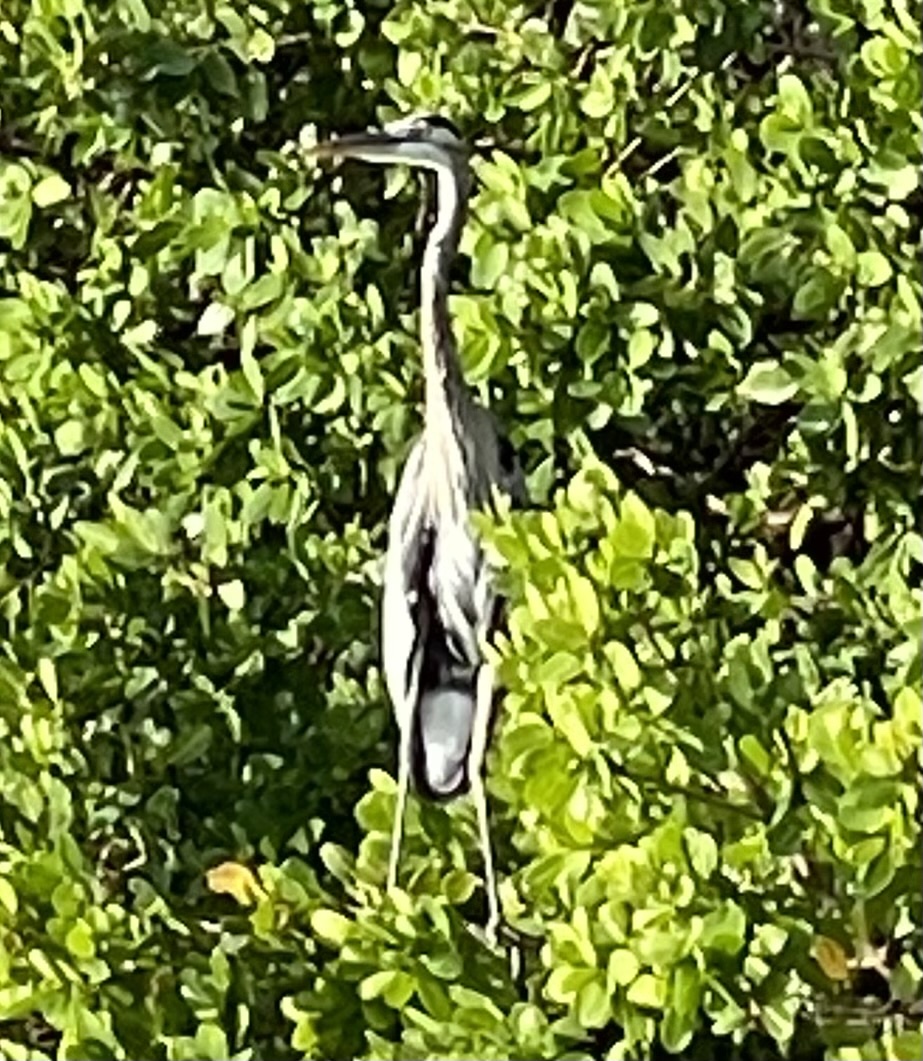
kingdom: Animalia
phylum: Chordata
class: Aves
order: Pelecaniformes
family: Ardeidae
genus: Ardea
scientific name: Ardea herodias
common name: Great blue heron
